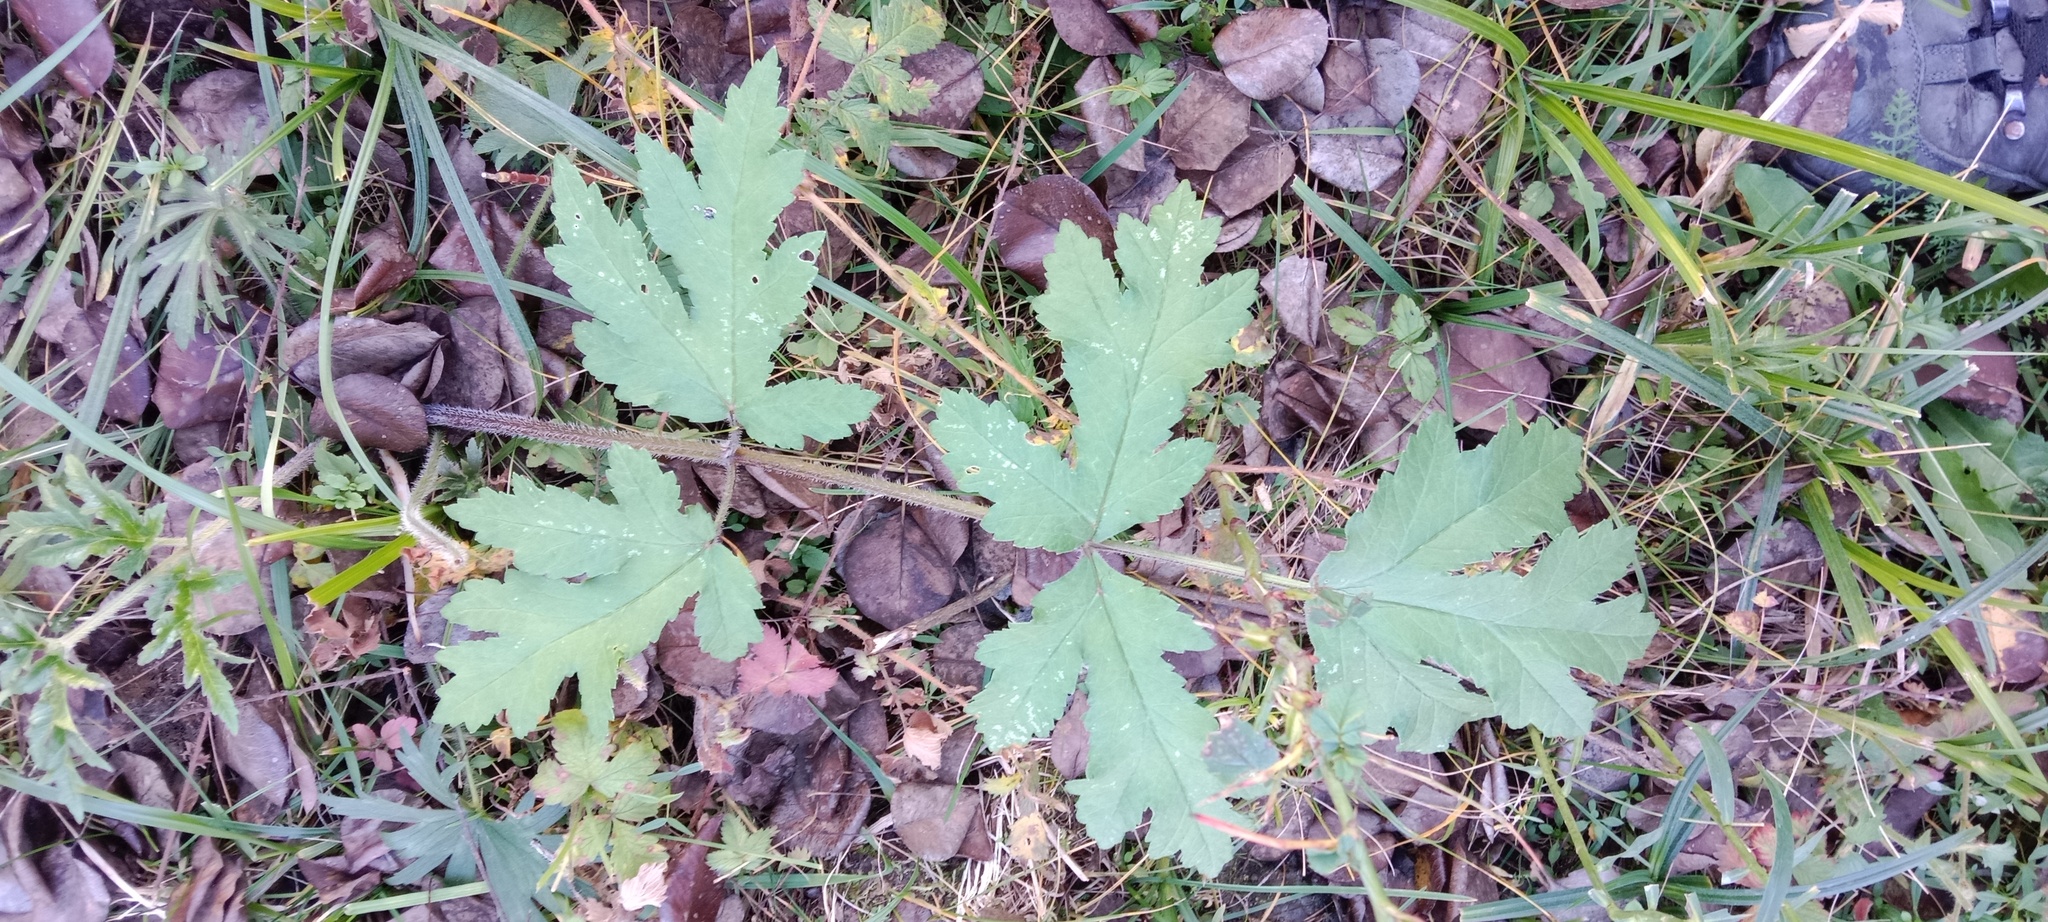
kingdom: Plantae
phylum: Tracheophyta
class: Magnoliopsida
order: Apiales
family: Apiaceae
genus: Heracleum
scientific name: Heracleum sphondylium
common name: Hogweed
